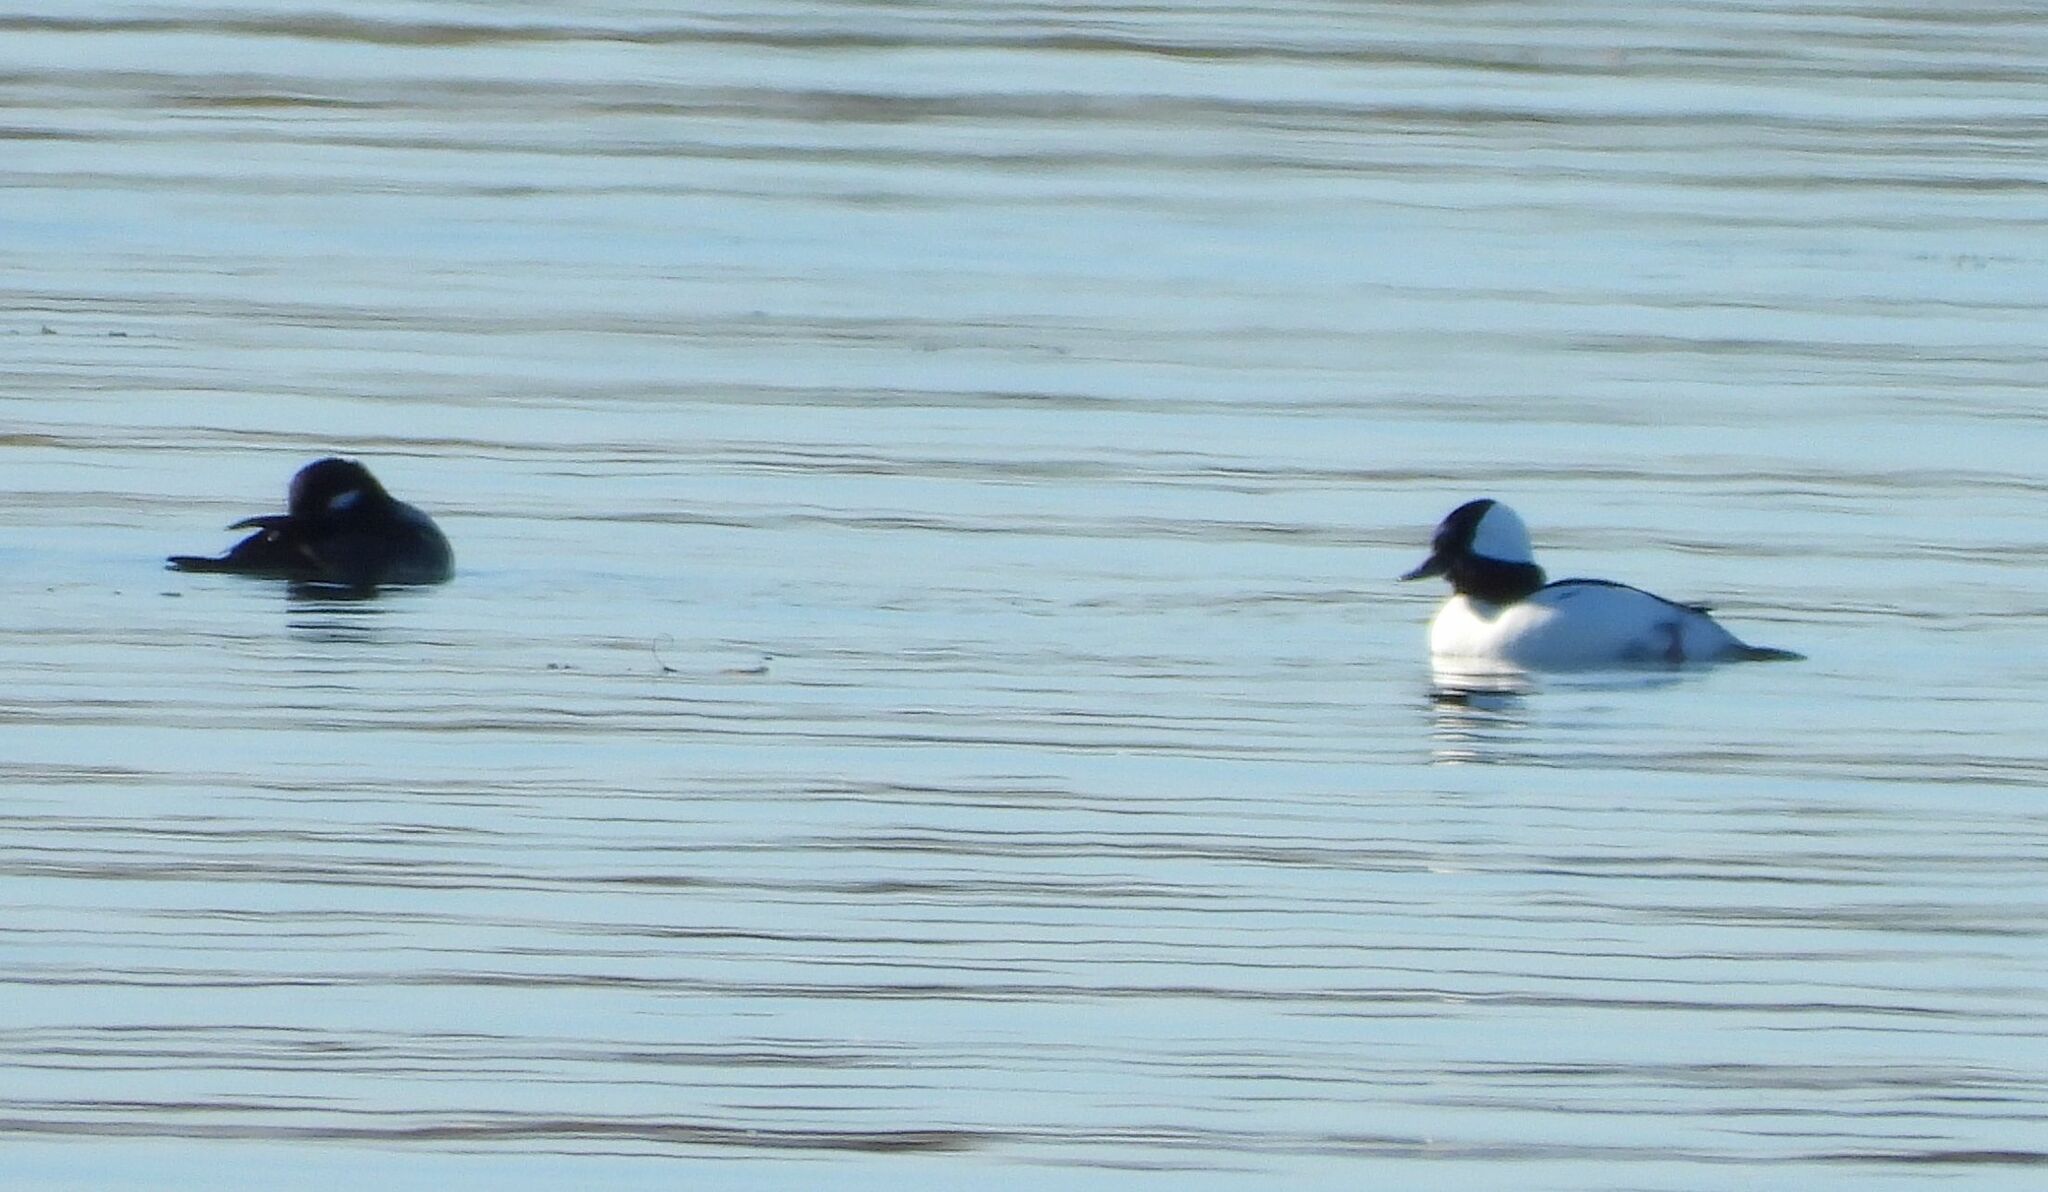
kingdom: Animalia
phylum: Chordata
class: Aves
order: Anseriformes
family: Anatidae
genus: Bucephala
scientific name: Bucephala albeola
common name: Bufflehead
